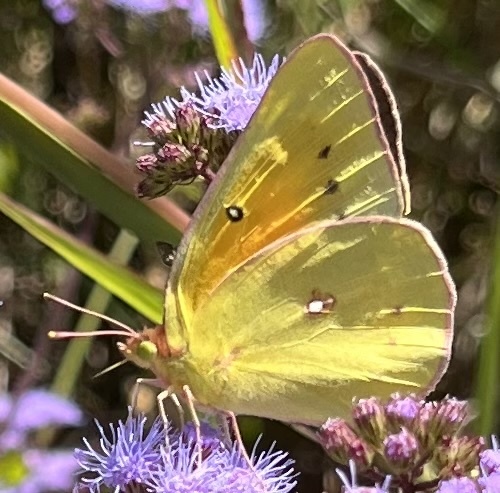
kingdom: Animalia
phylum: Arthropoda
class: Insecta
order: Lepidoptera
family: Pieridae
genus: Colias
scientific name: Colias eurytheme
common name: Alfalfa butterfly
